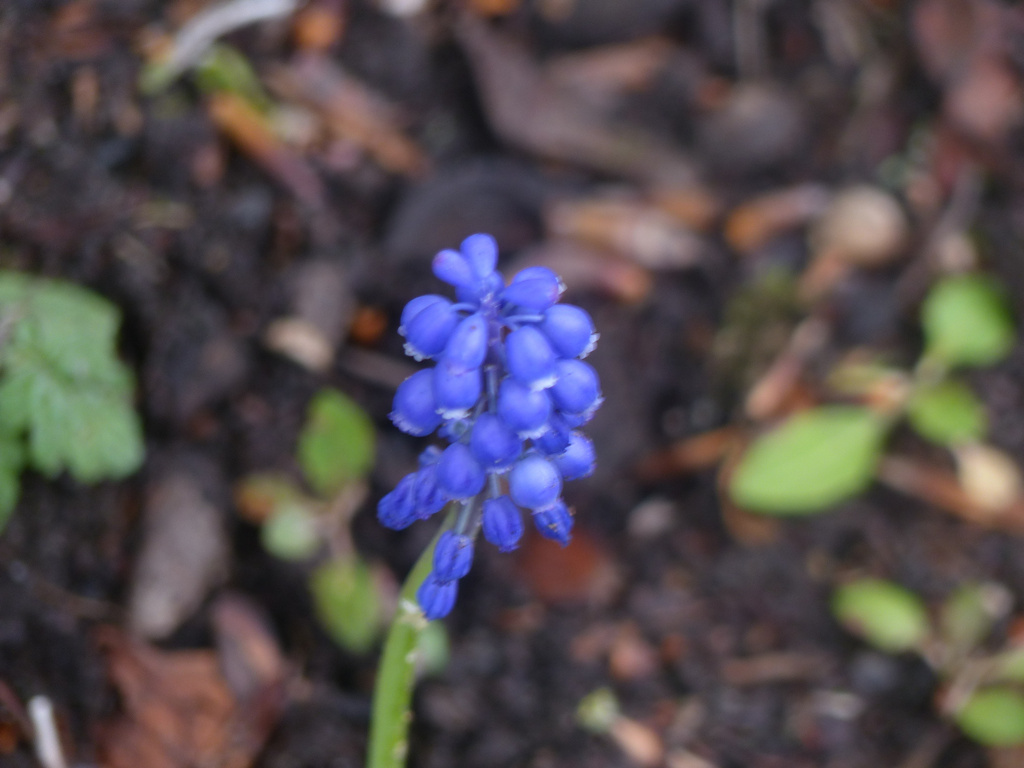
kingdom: Plantae
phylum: Tracheophyta
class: Liliopsida
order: Asparagales
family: Asparagaceae
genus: Muscari
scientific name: Muscari armeniacum
